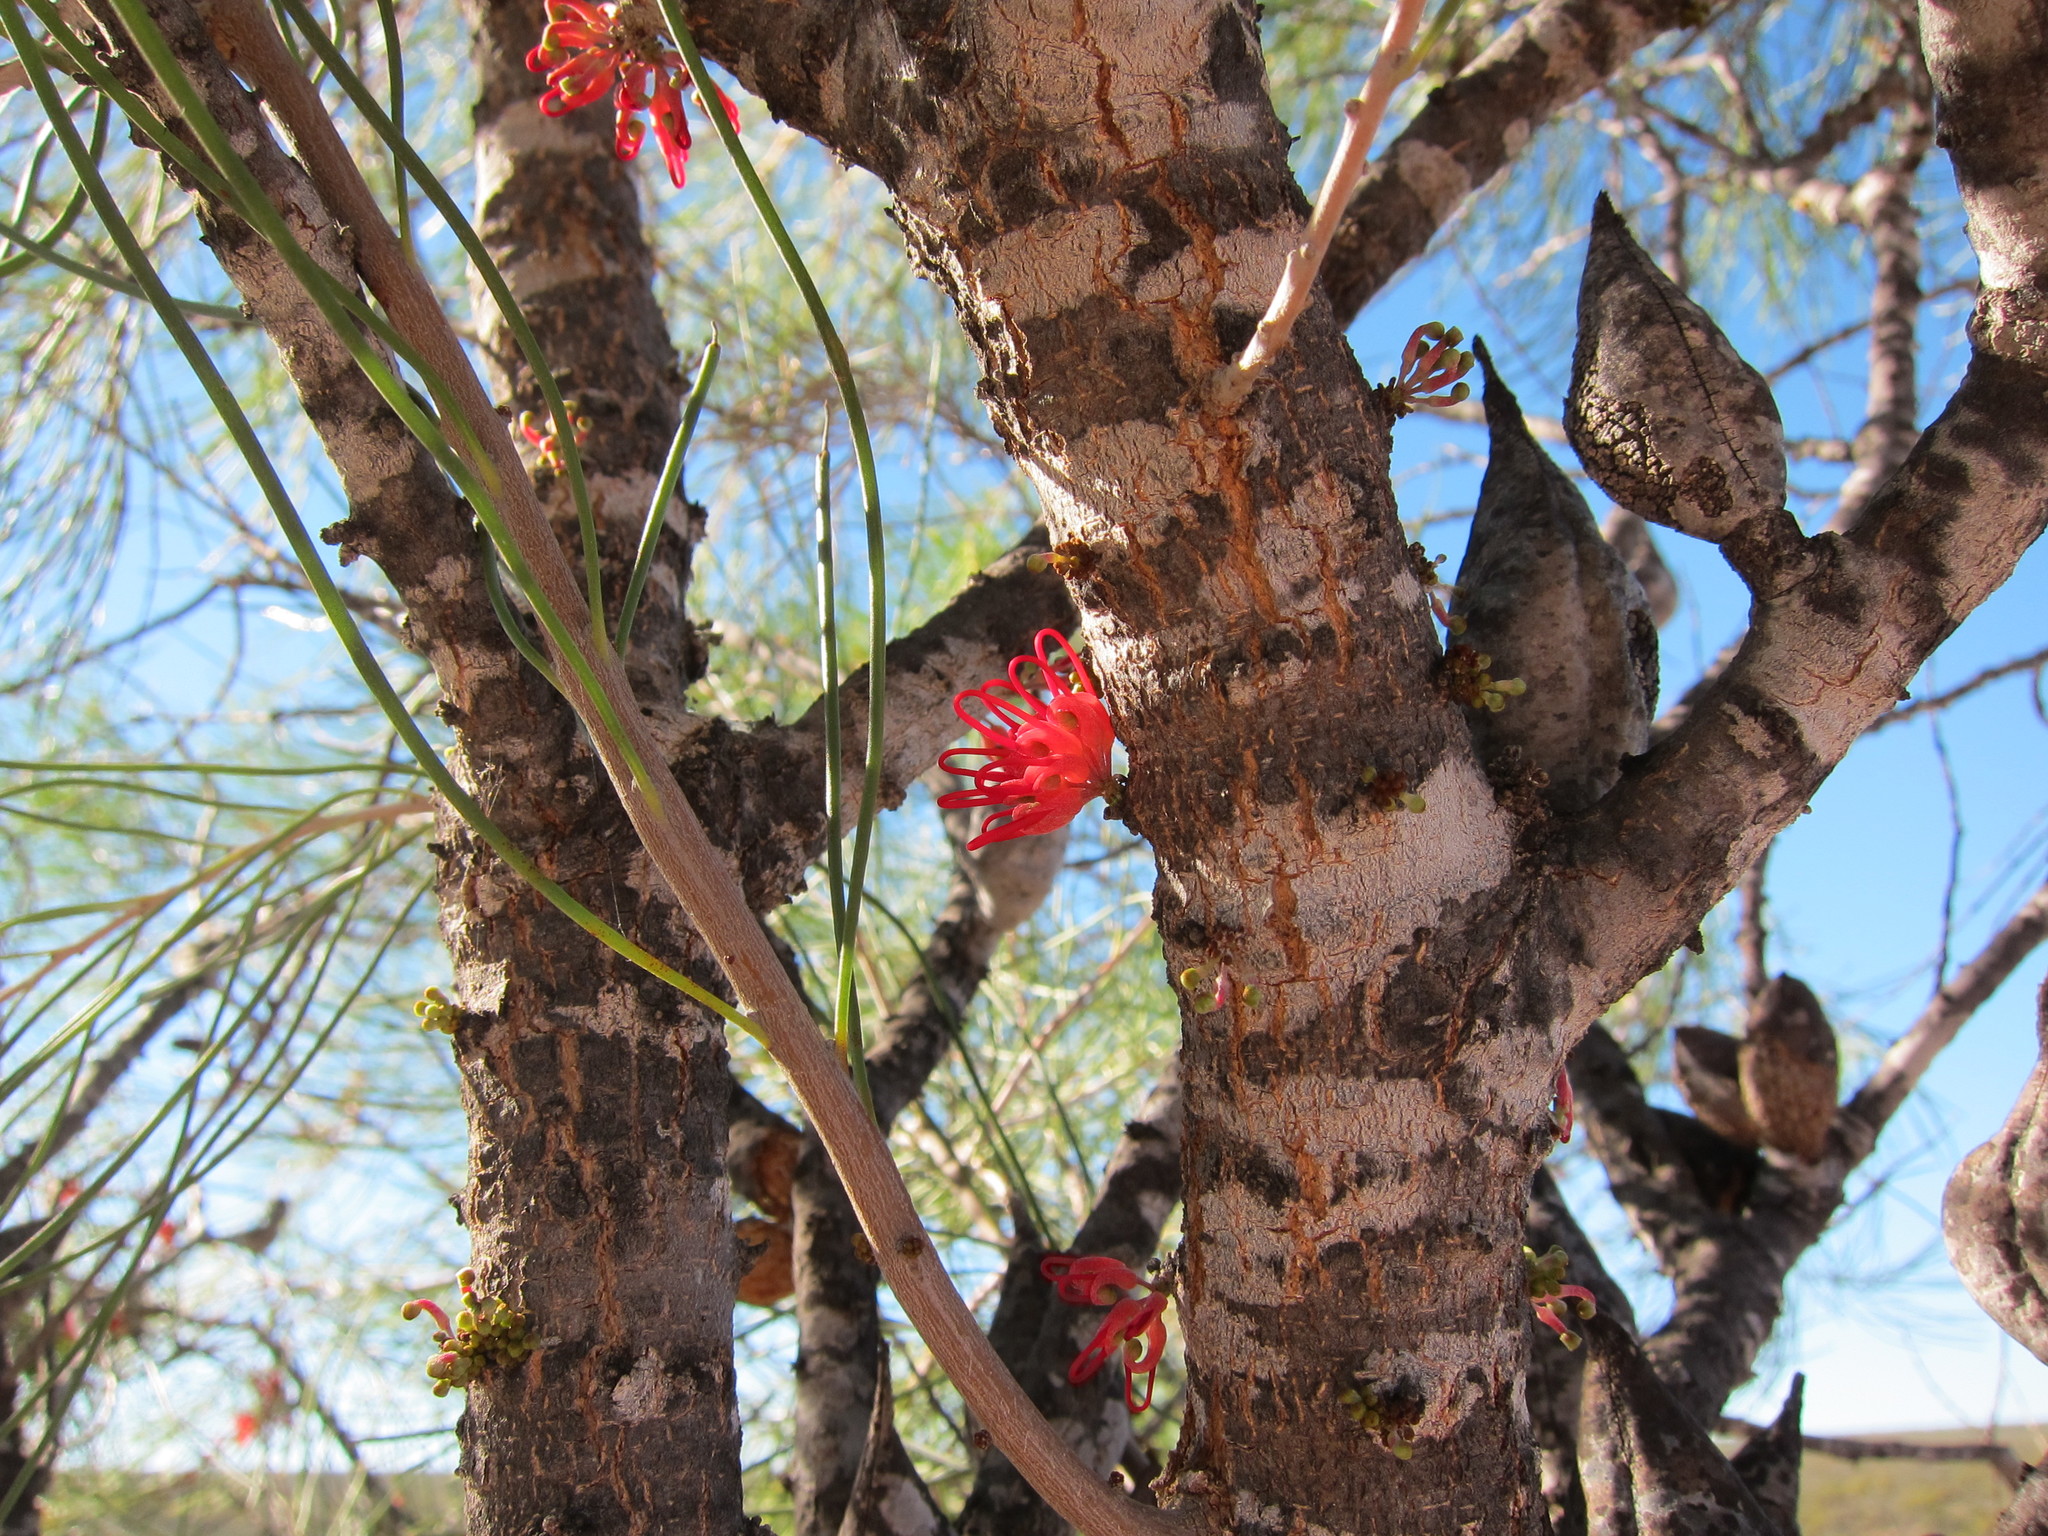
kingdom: Plantae
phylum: Tracheophyta
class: Magnoliopsida
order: Proteales
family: Proteaceae
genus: Hakea
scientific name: Hakea orthorrhyncha
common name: Bird beak hakea
